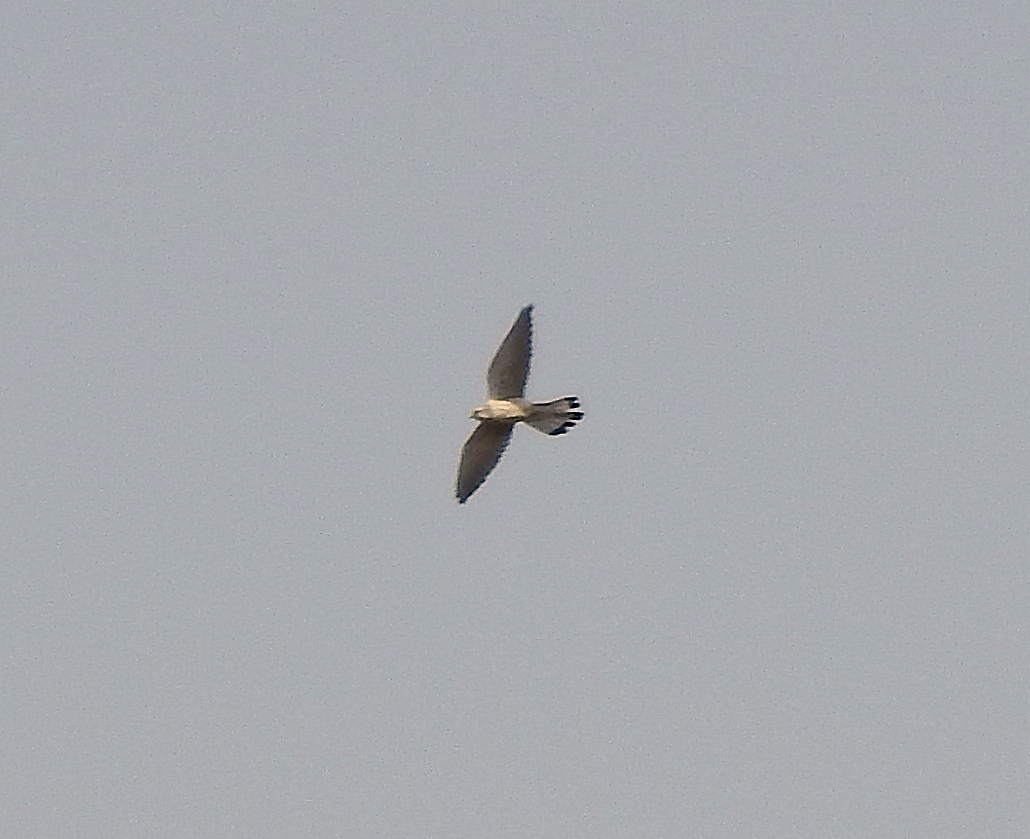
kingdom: Animalia
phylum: Chordata
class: Aves
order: Falconiformes
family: Falconidae
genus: Falco
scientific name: Falco naumanni
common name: Lesser kestrel
